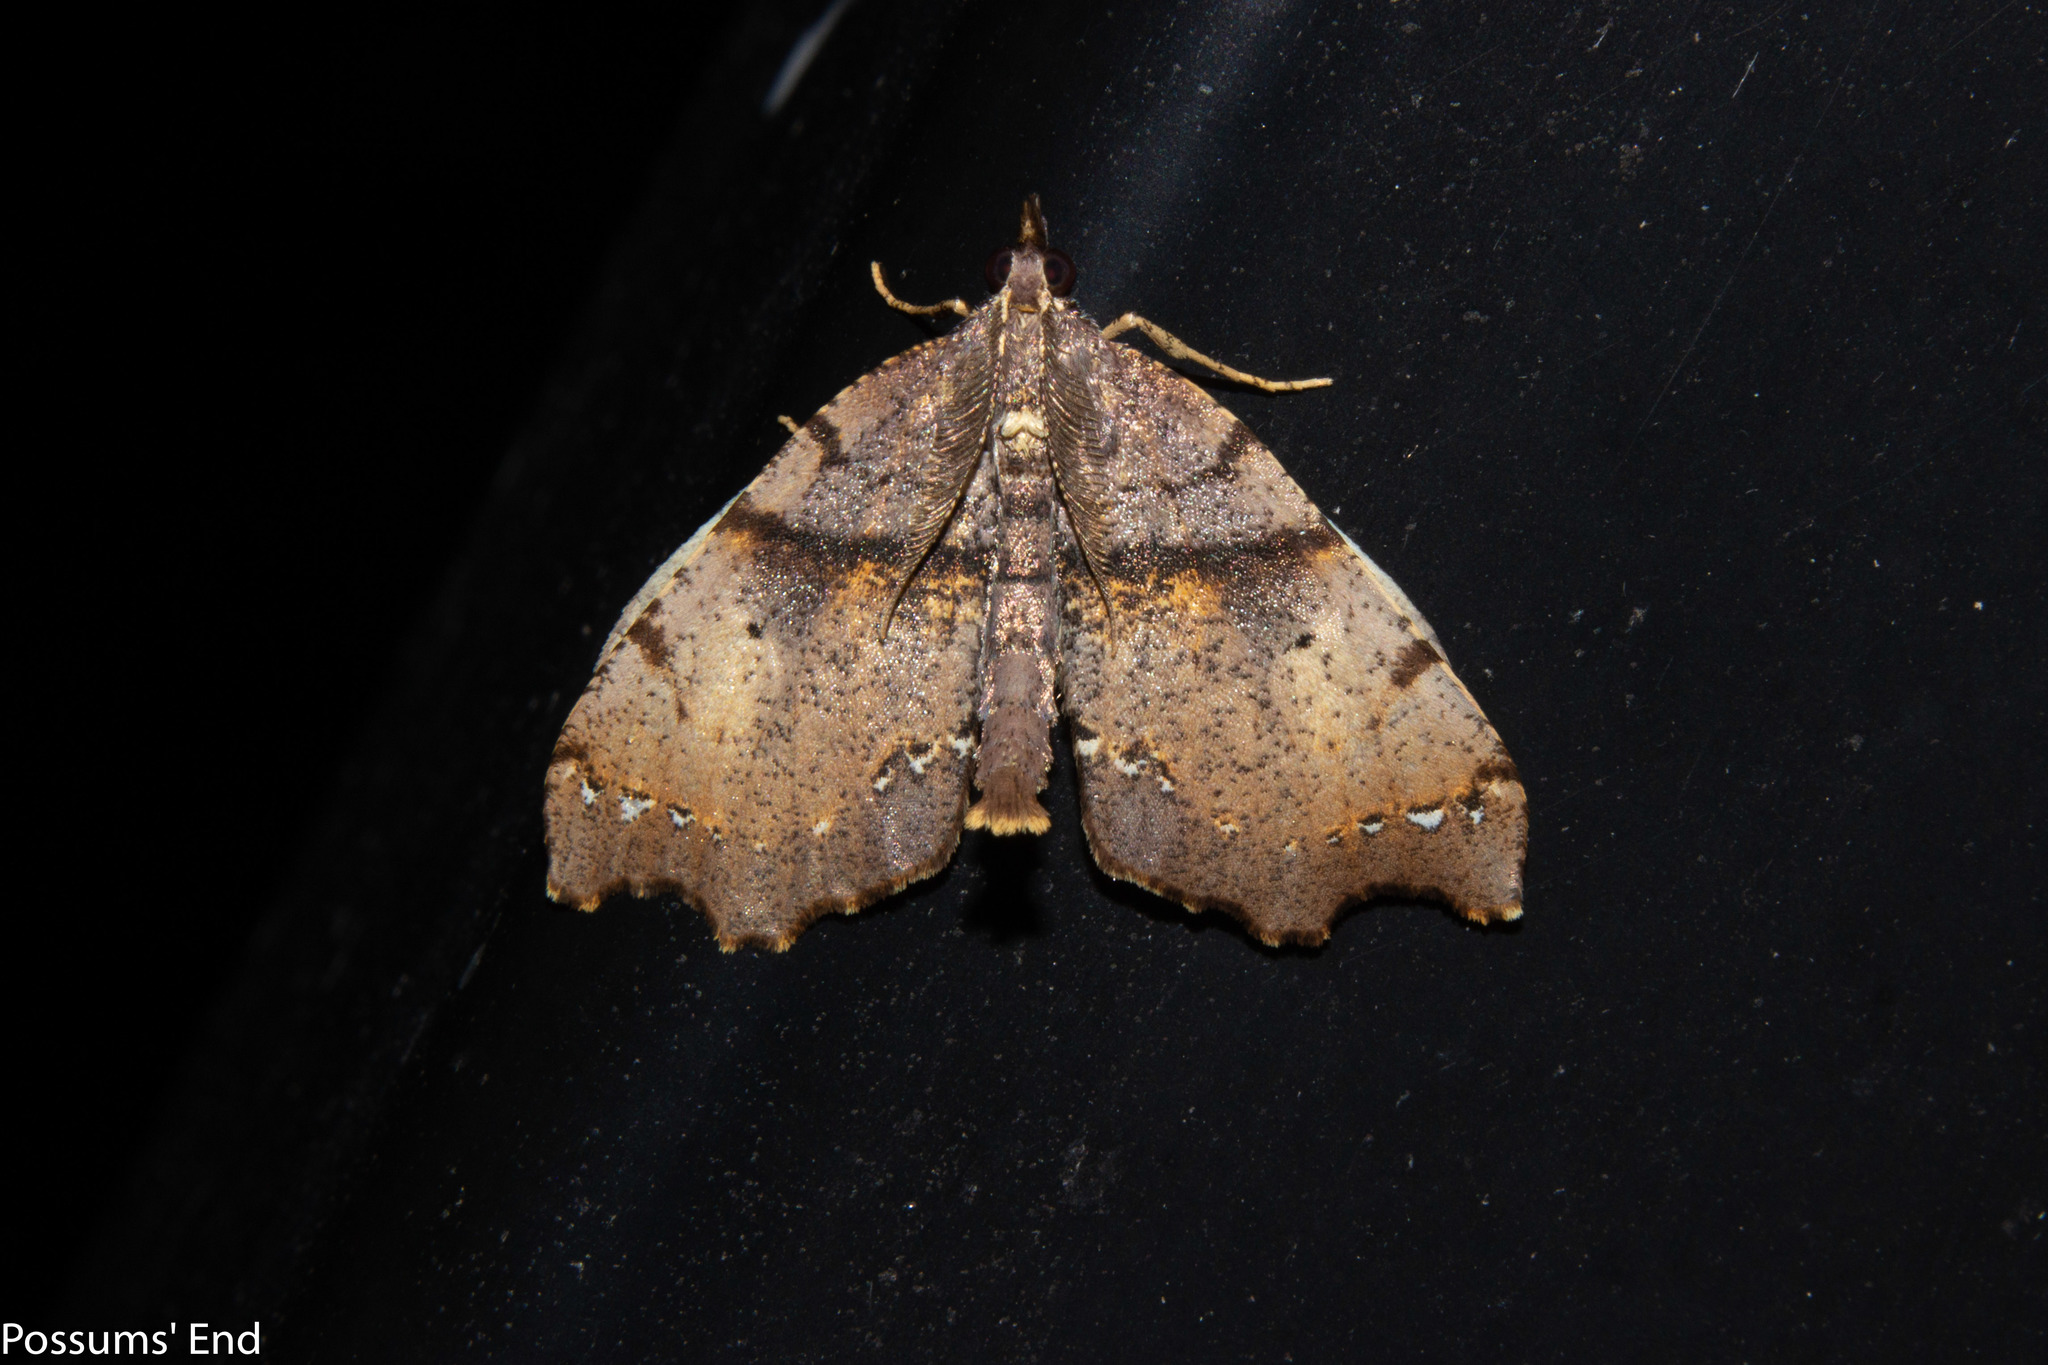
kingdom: Animalia
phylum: Arthropoda
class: Insecta
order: Lepidoptera
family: Geometridae
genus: Chalastra
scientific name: Chalastra pellurgata
